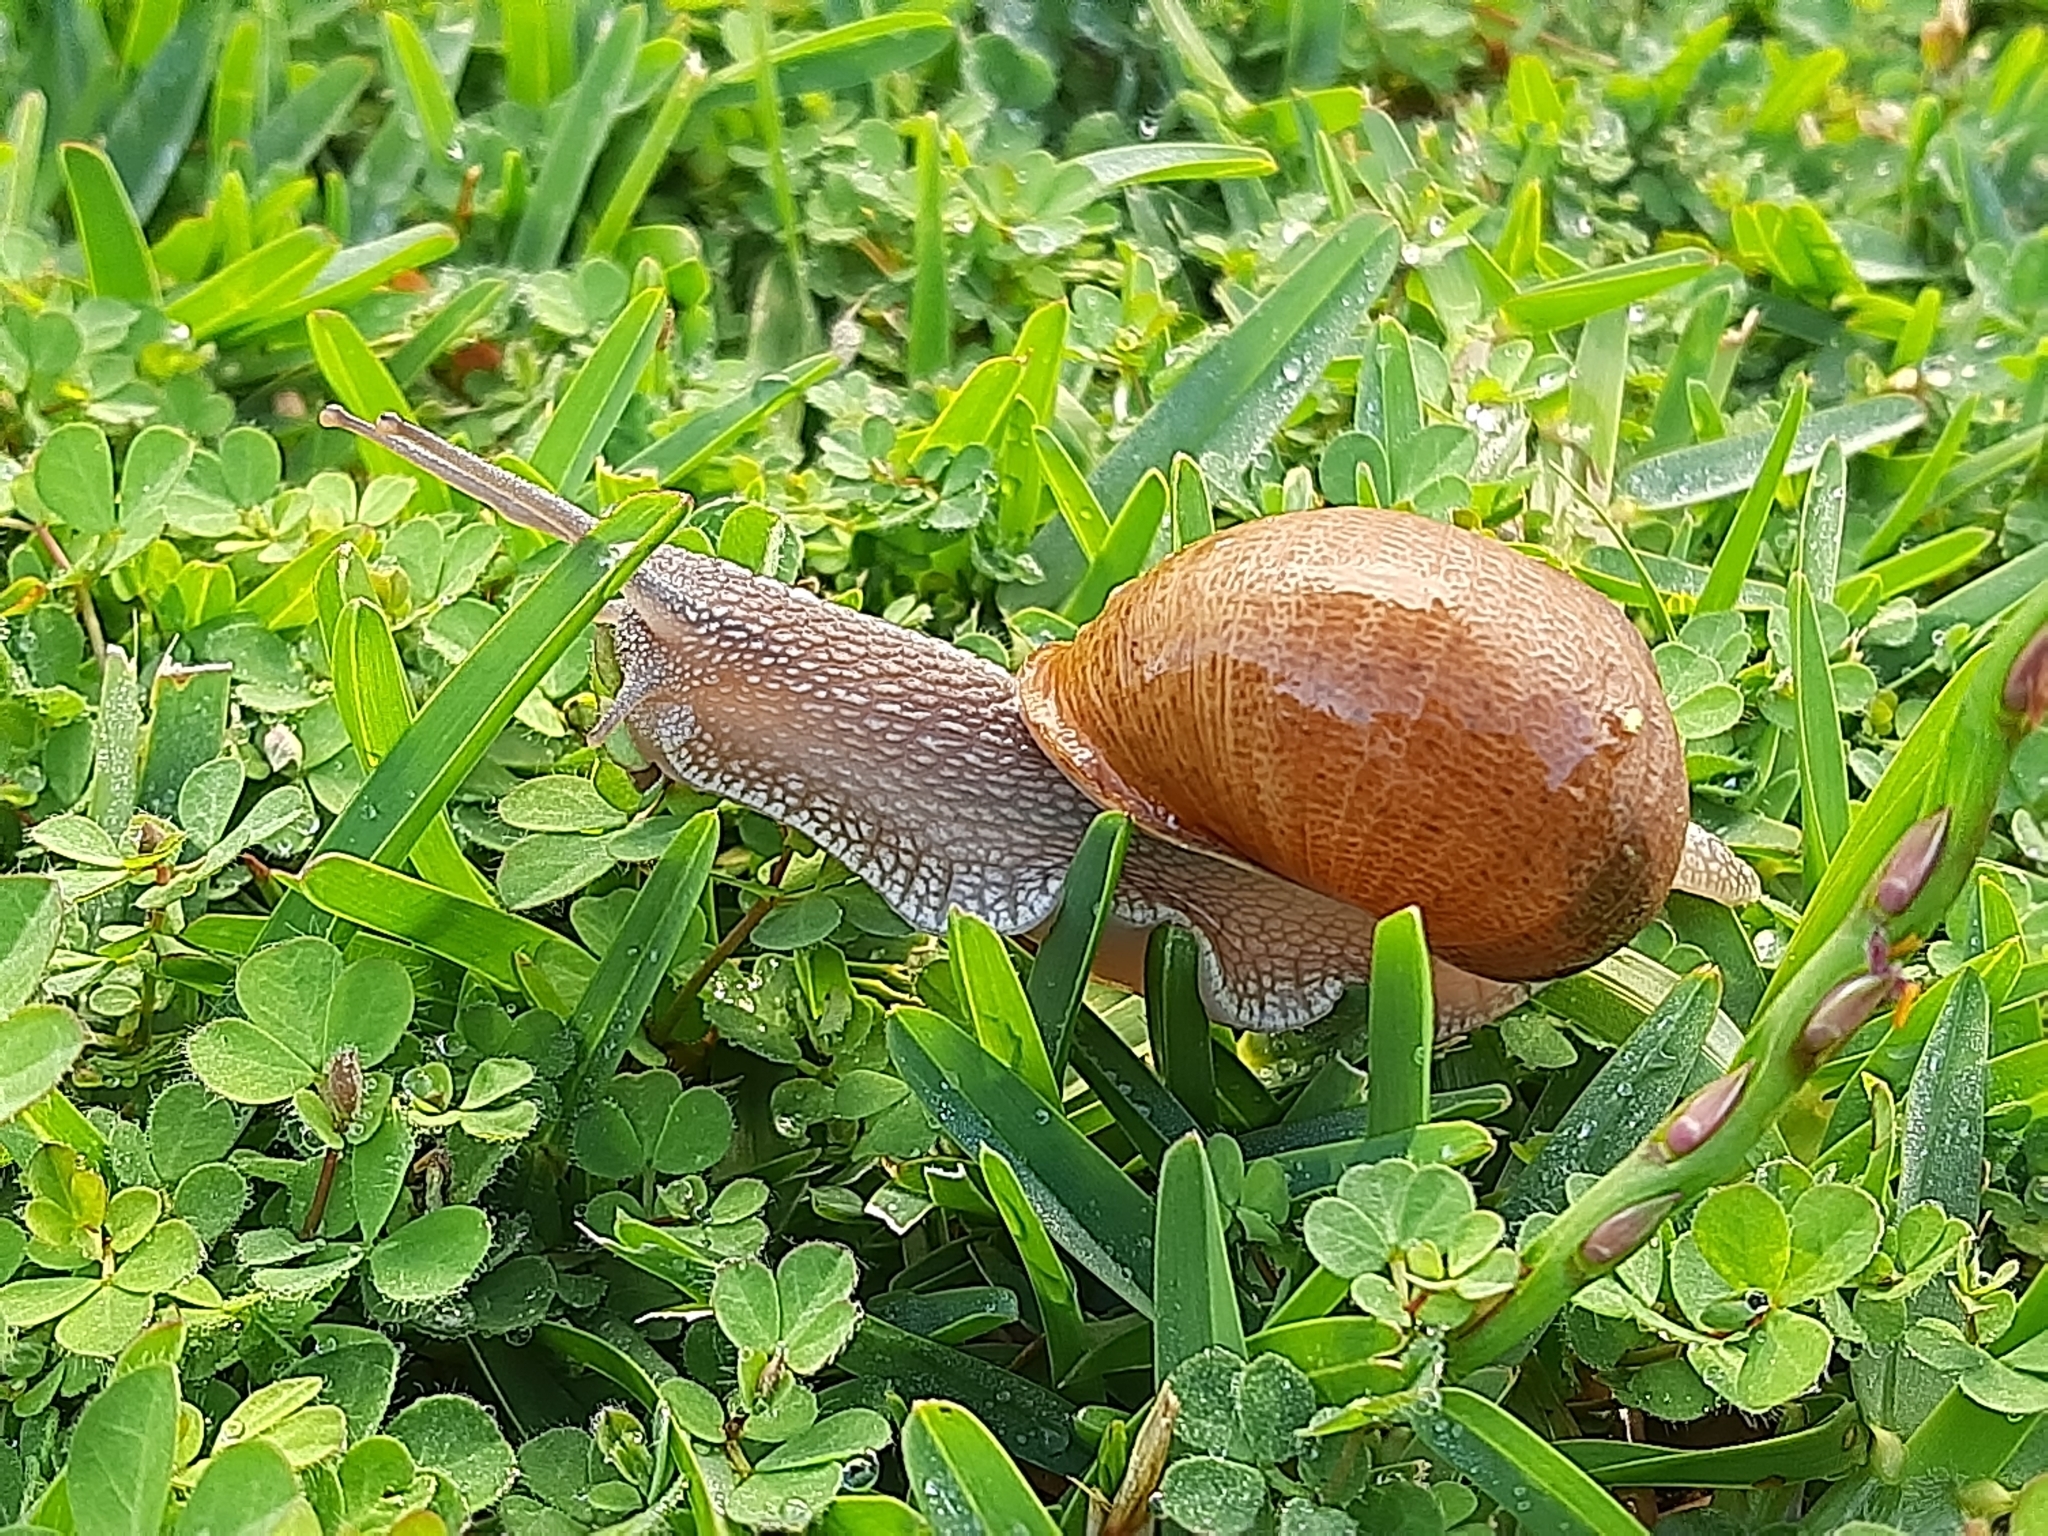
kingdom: Animalia
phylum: Mollusca
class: Gastropoda
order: Stylommatophora
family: Helicidae
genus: Cornu
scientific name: Cornu aspersum
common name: Brown garden snail
